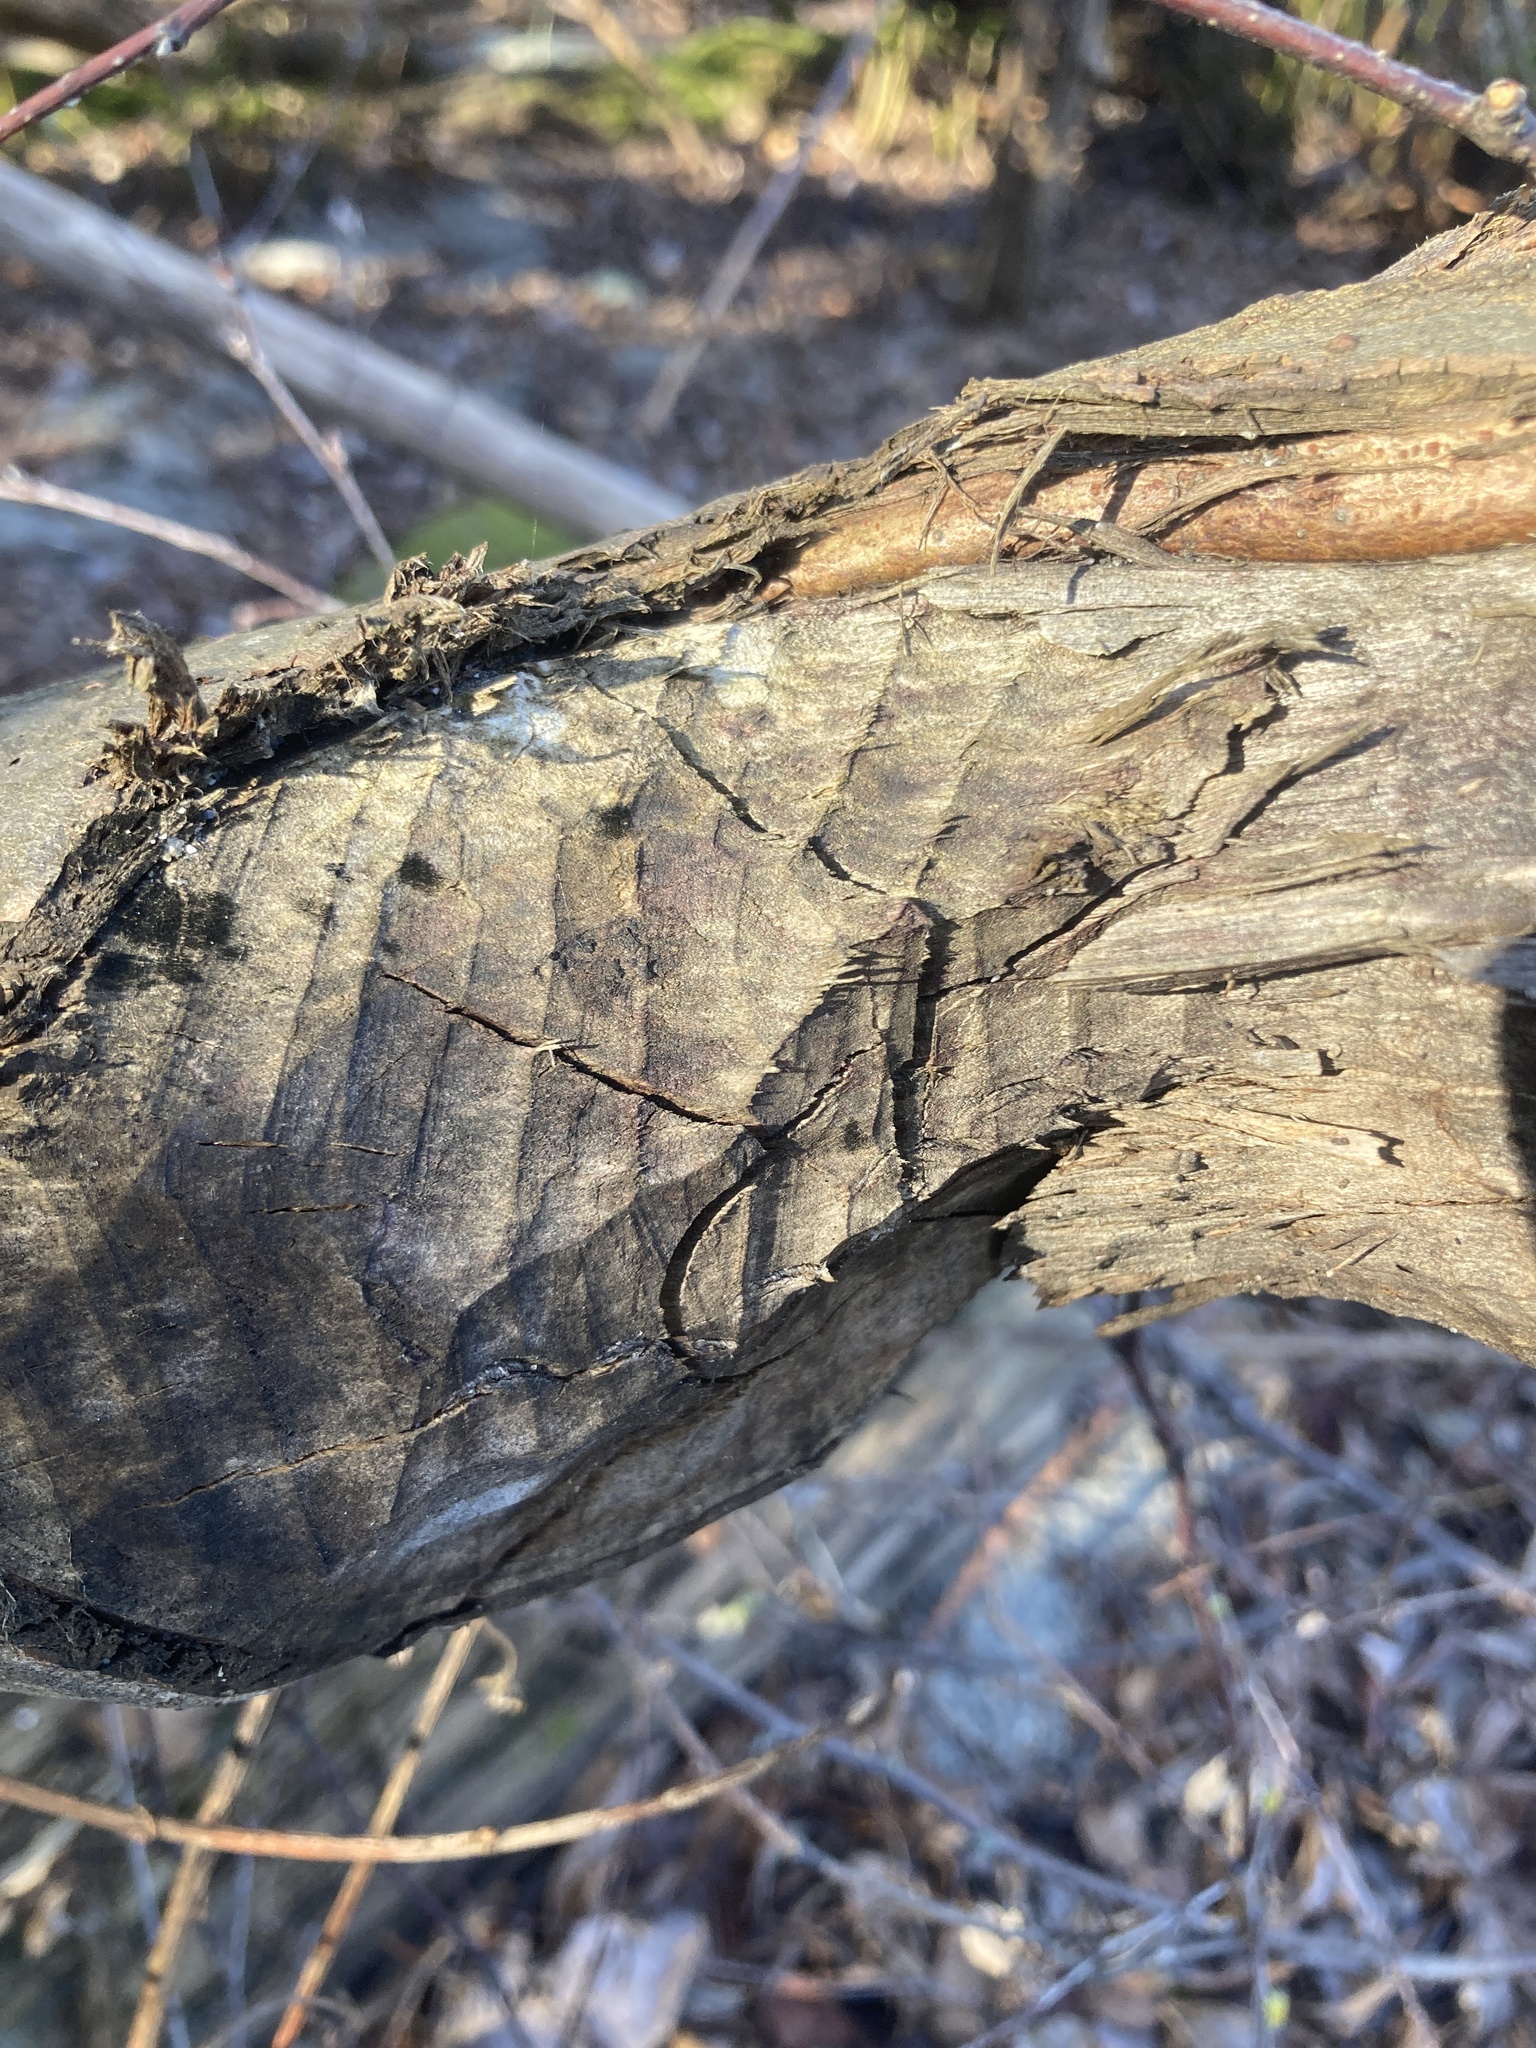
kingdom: Animalia
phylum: Chordata
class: Mammalia
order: Rodentia
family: Castoridae
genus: Castor
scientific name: Castor canadensis
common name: American beaver
